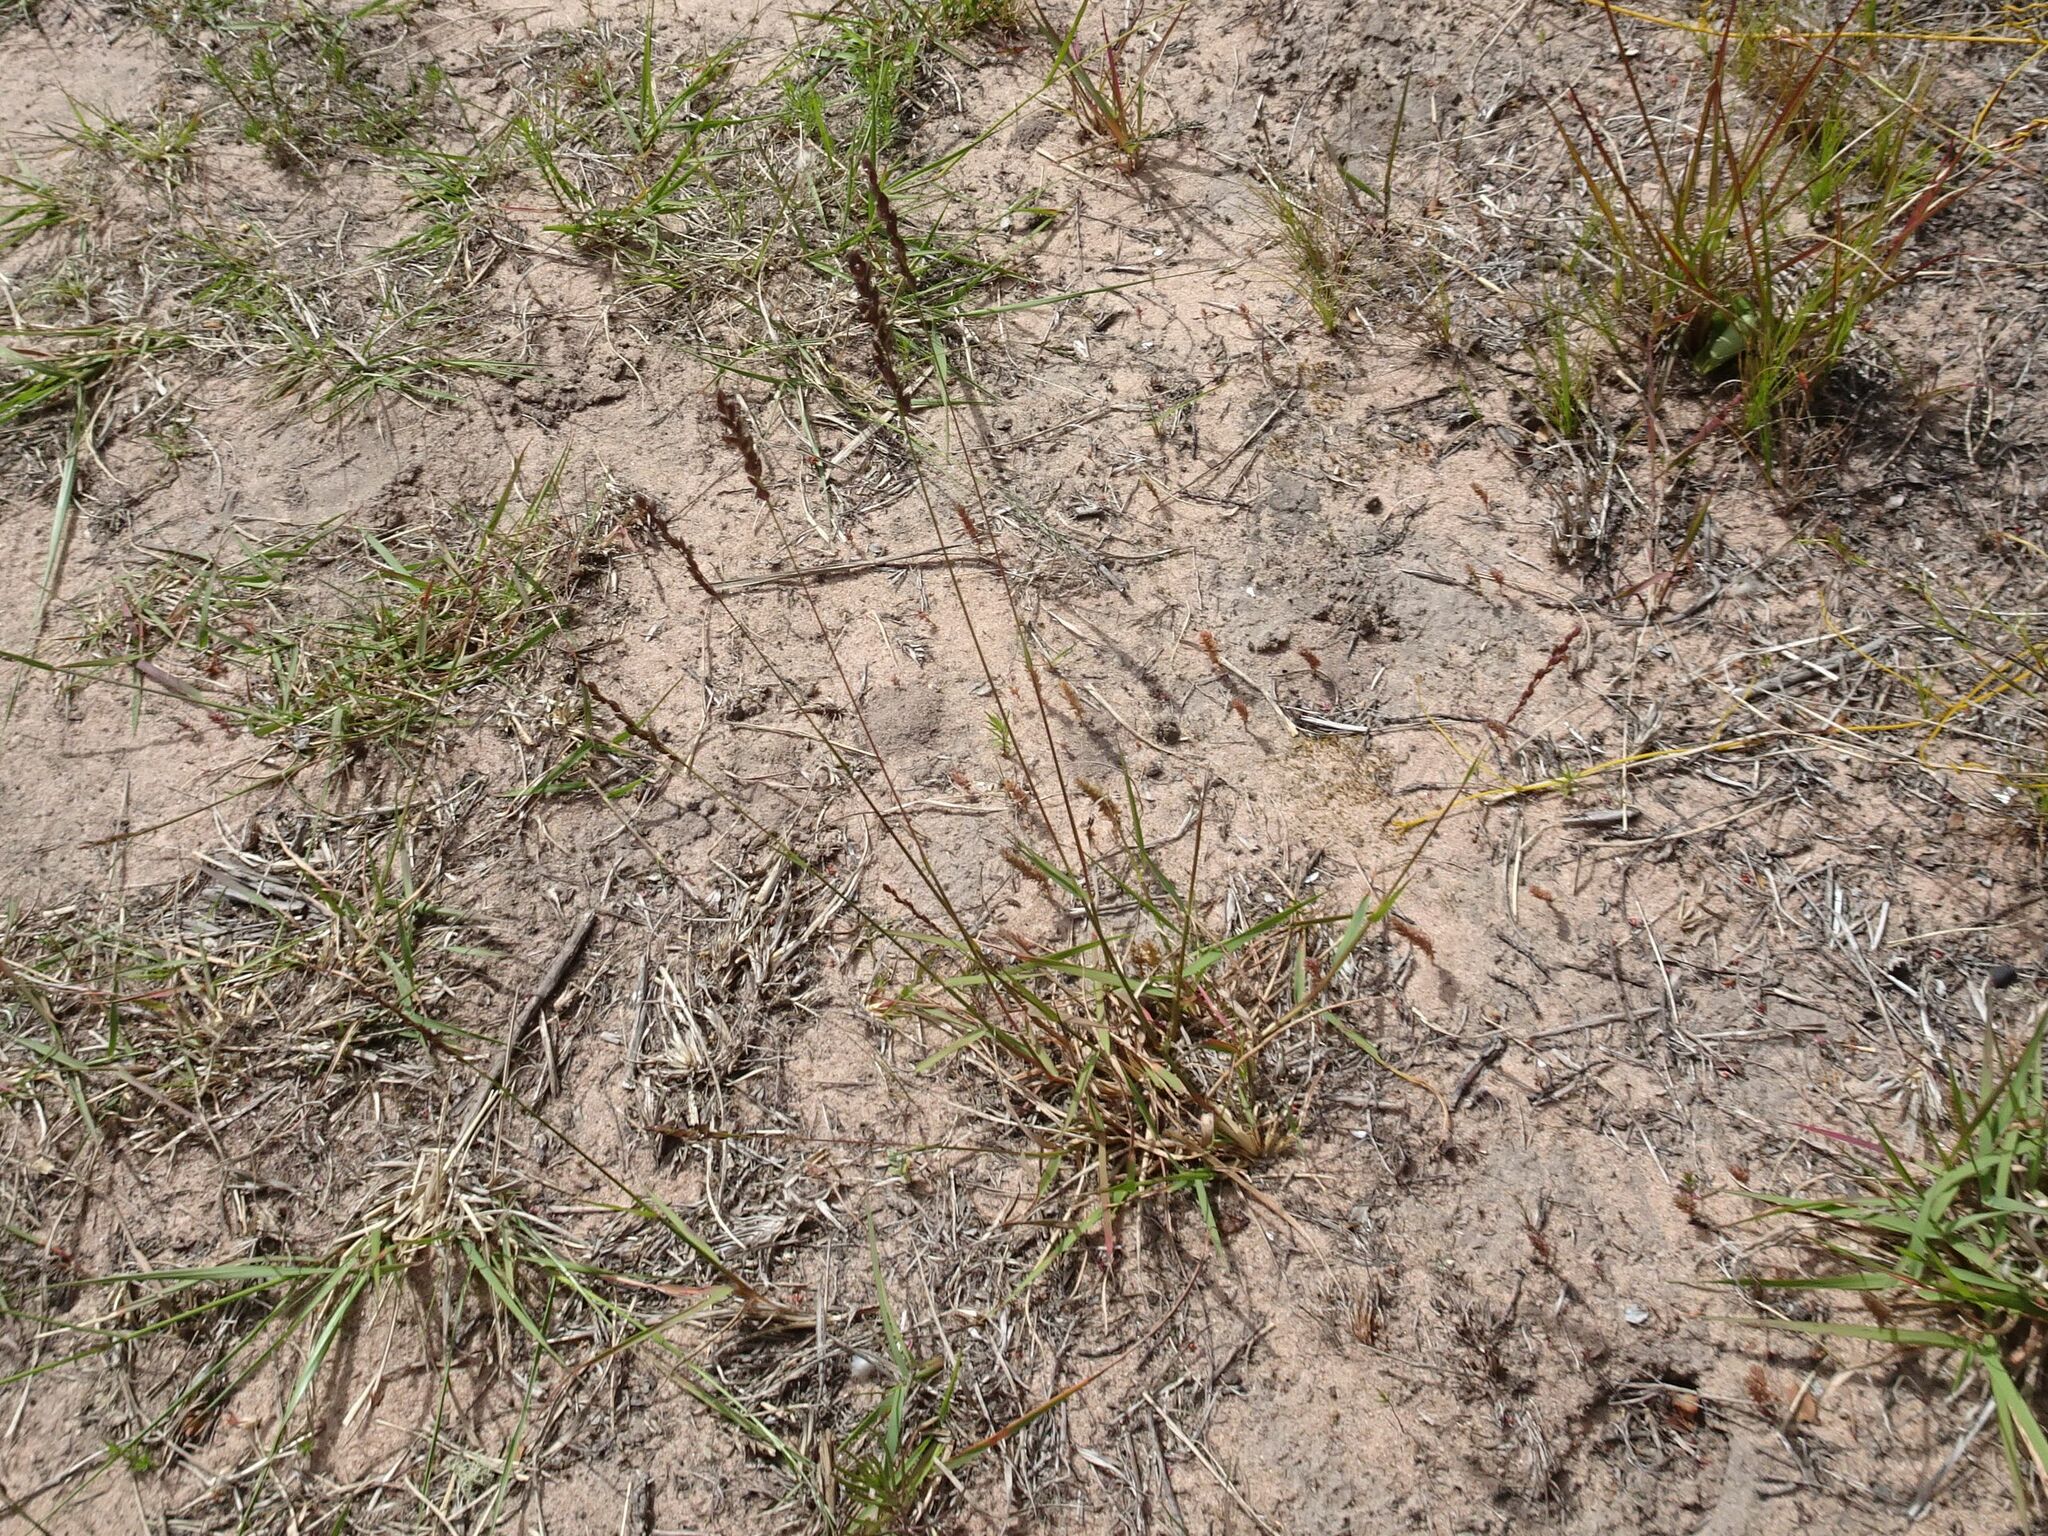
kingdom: Plantae
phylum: Tracheophyta
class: Liliopsida
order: Poales
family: Poaceae
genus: Eragrostis
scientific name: Eragrostis capensis
